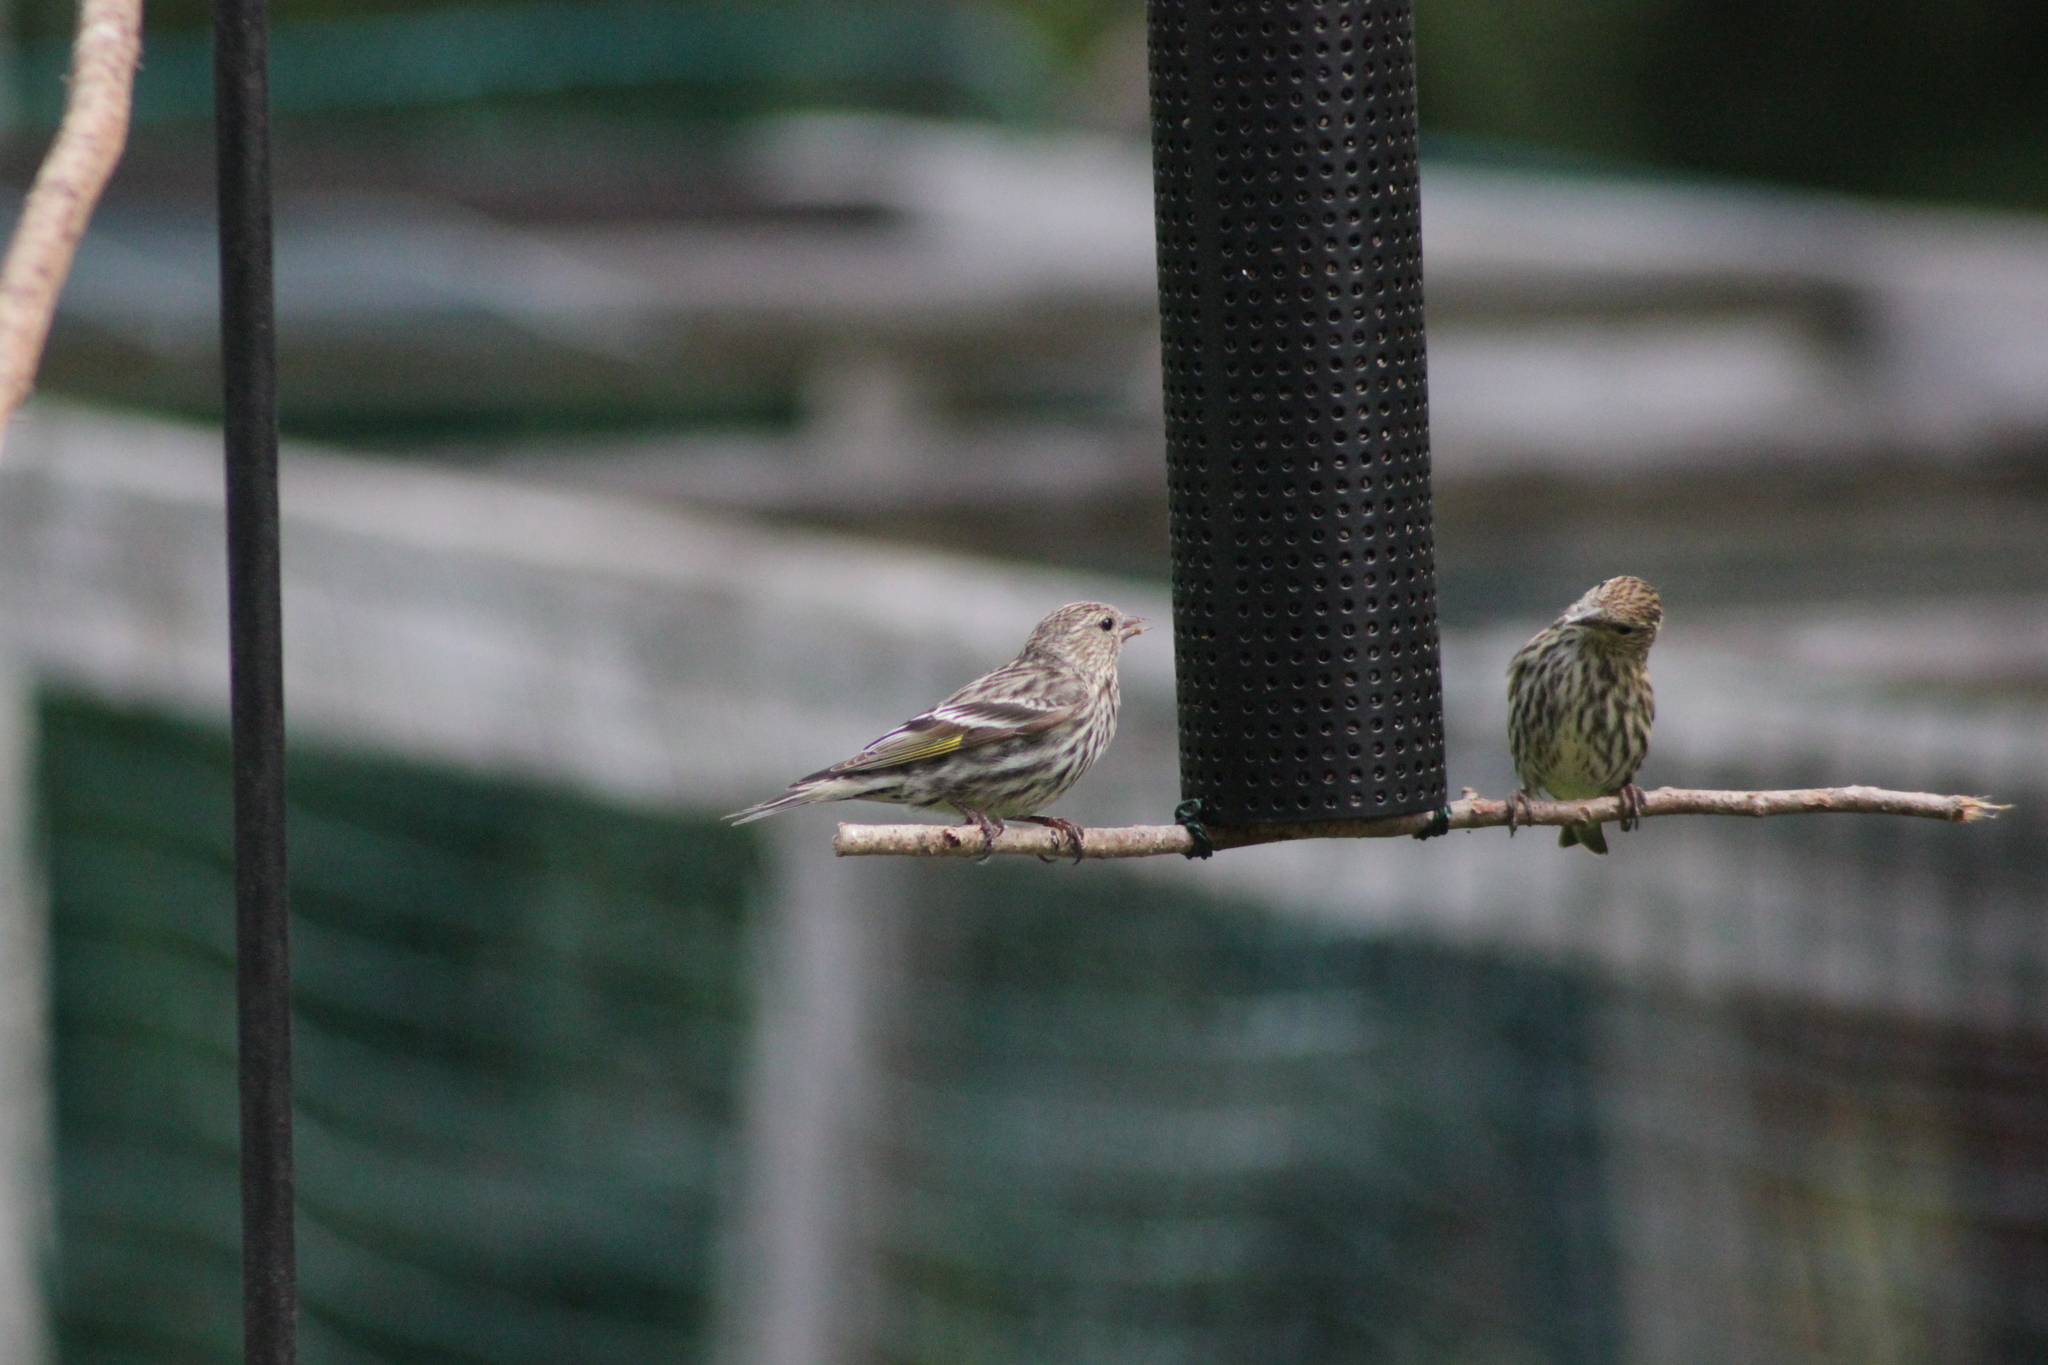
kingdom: Animalia
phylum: Chordata
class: Aves
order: Passeriformes
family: Fringillidae
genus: Spinus
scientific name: Spinus pinus
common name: Pine siskin
